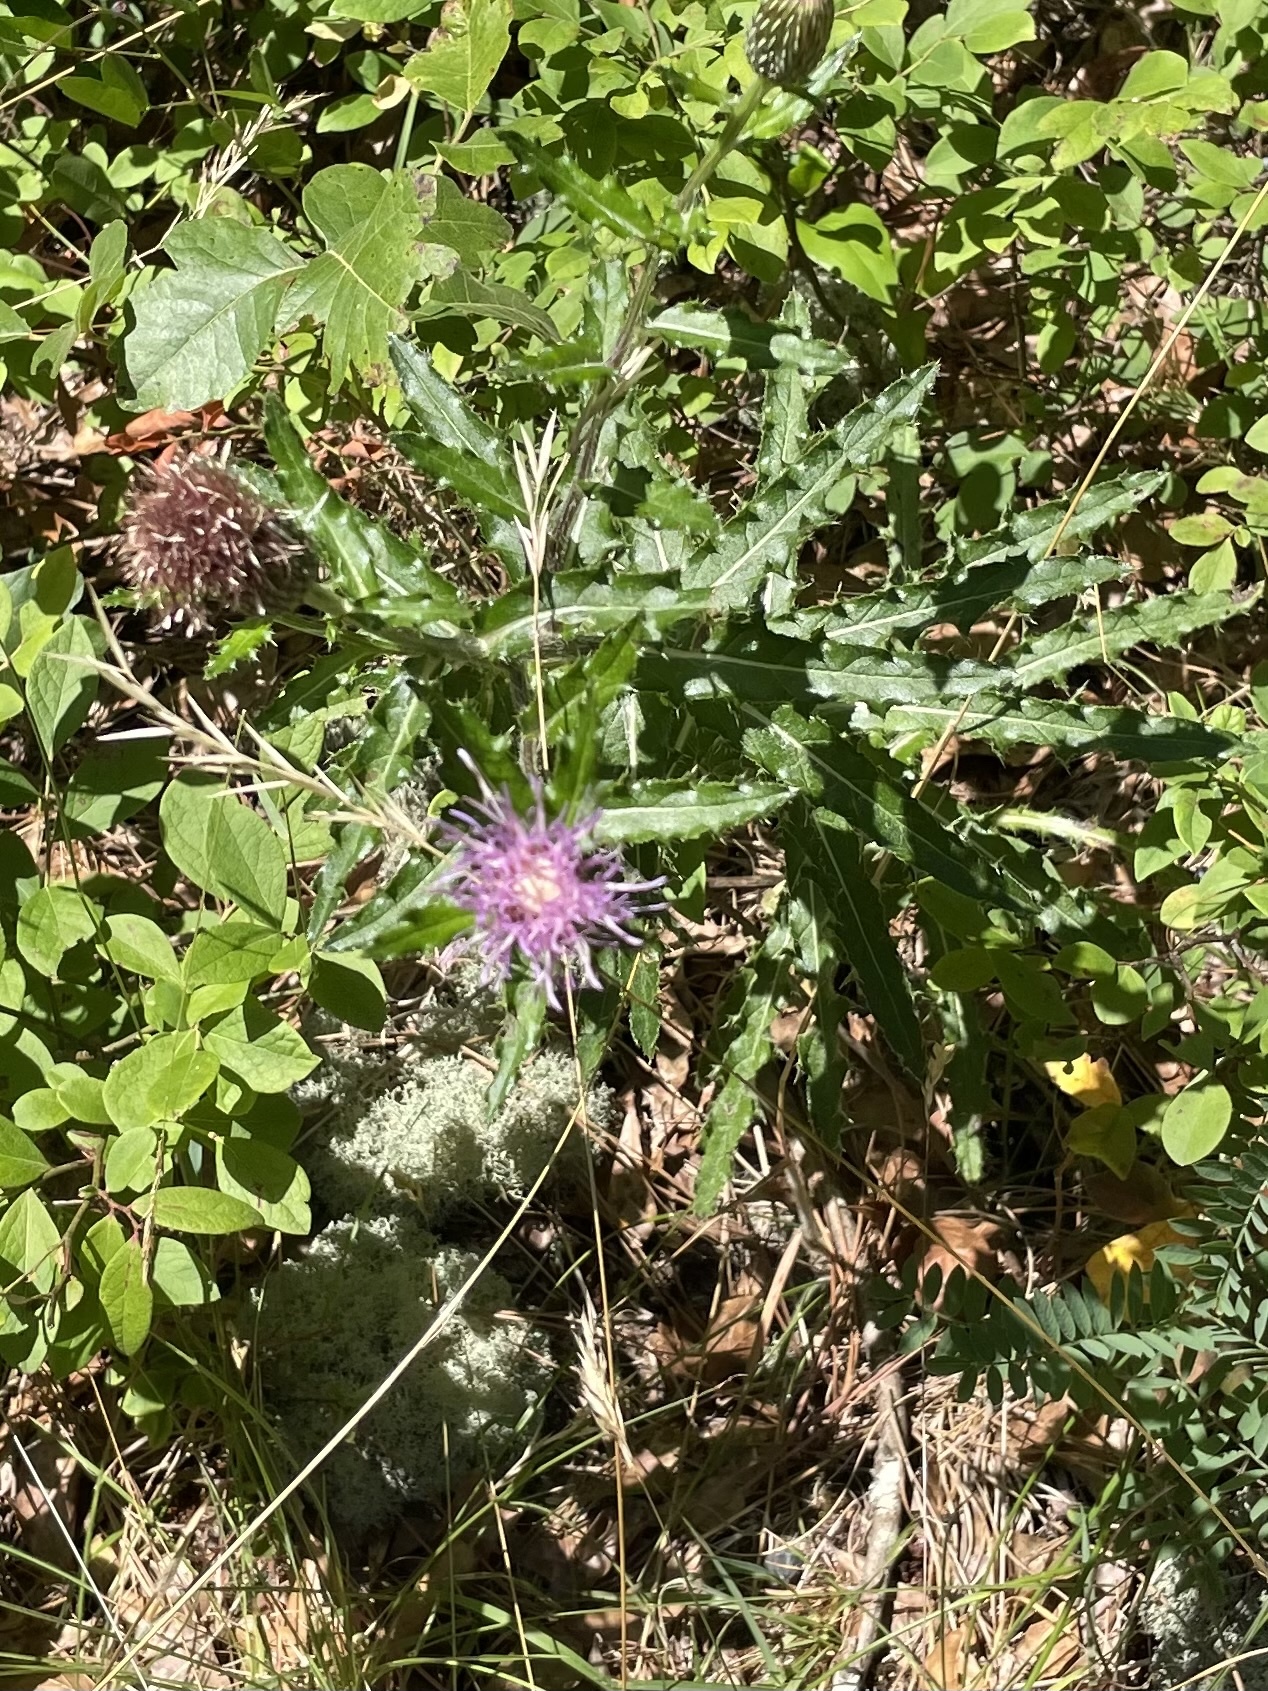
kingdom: Plantae
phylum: Tracheophyta
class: Magnoliopsida
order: Asterales
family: Asteraceae
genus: Cirsium
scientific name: Cirsium repandum
